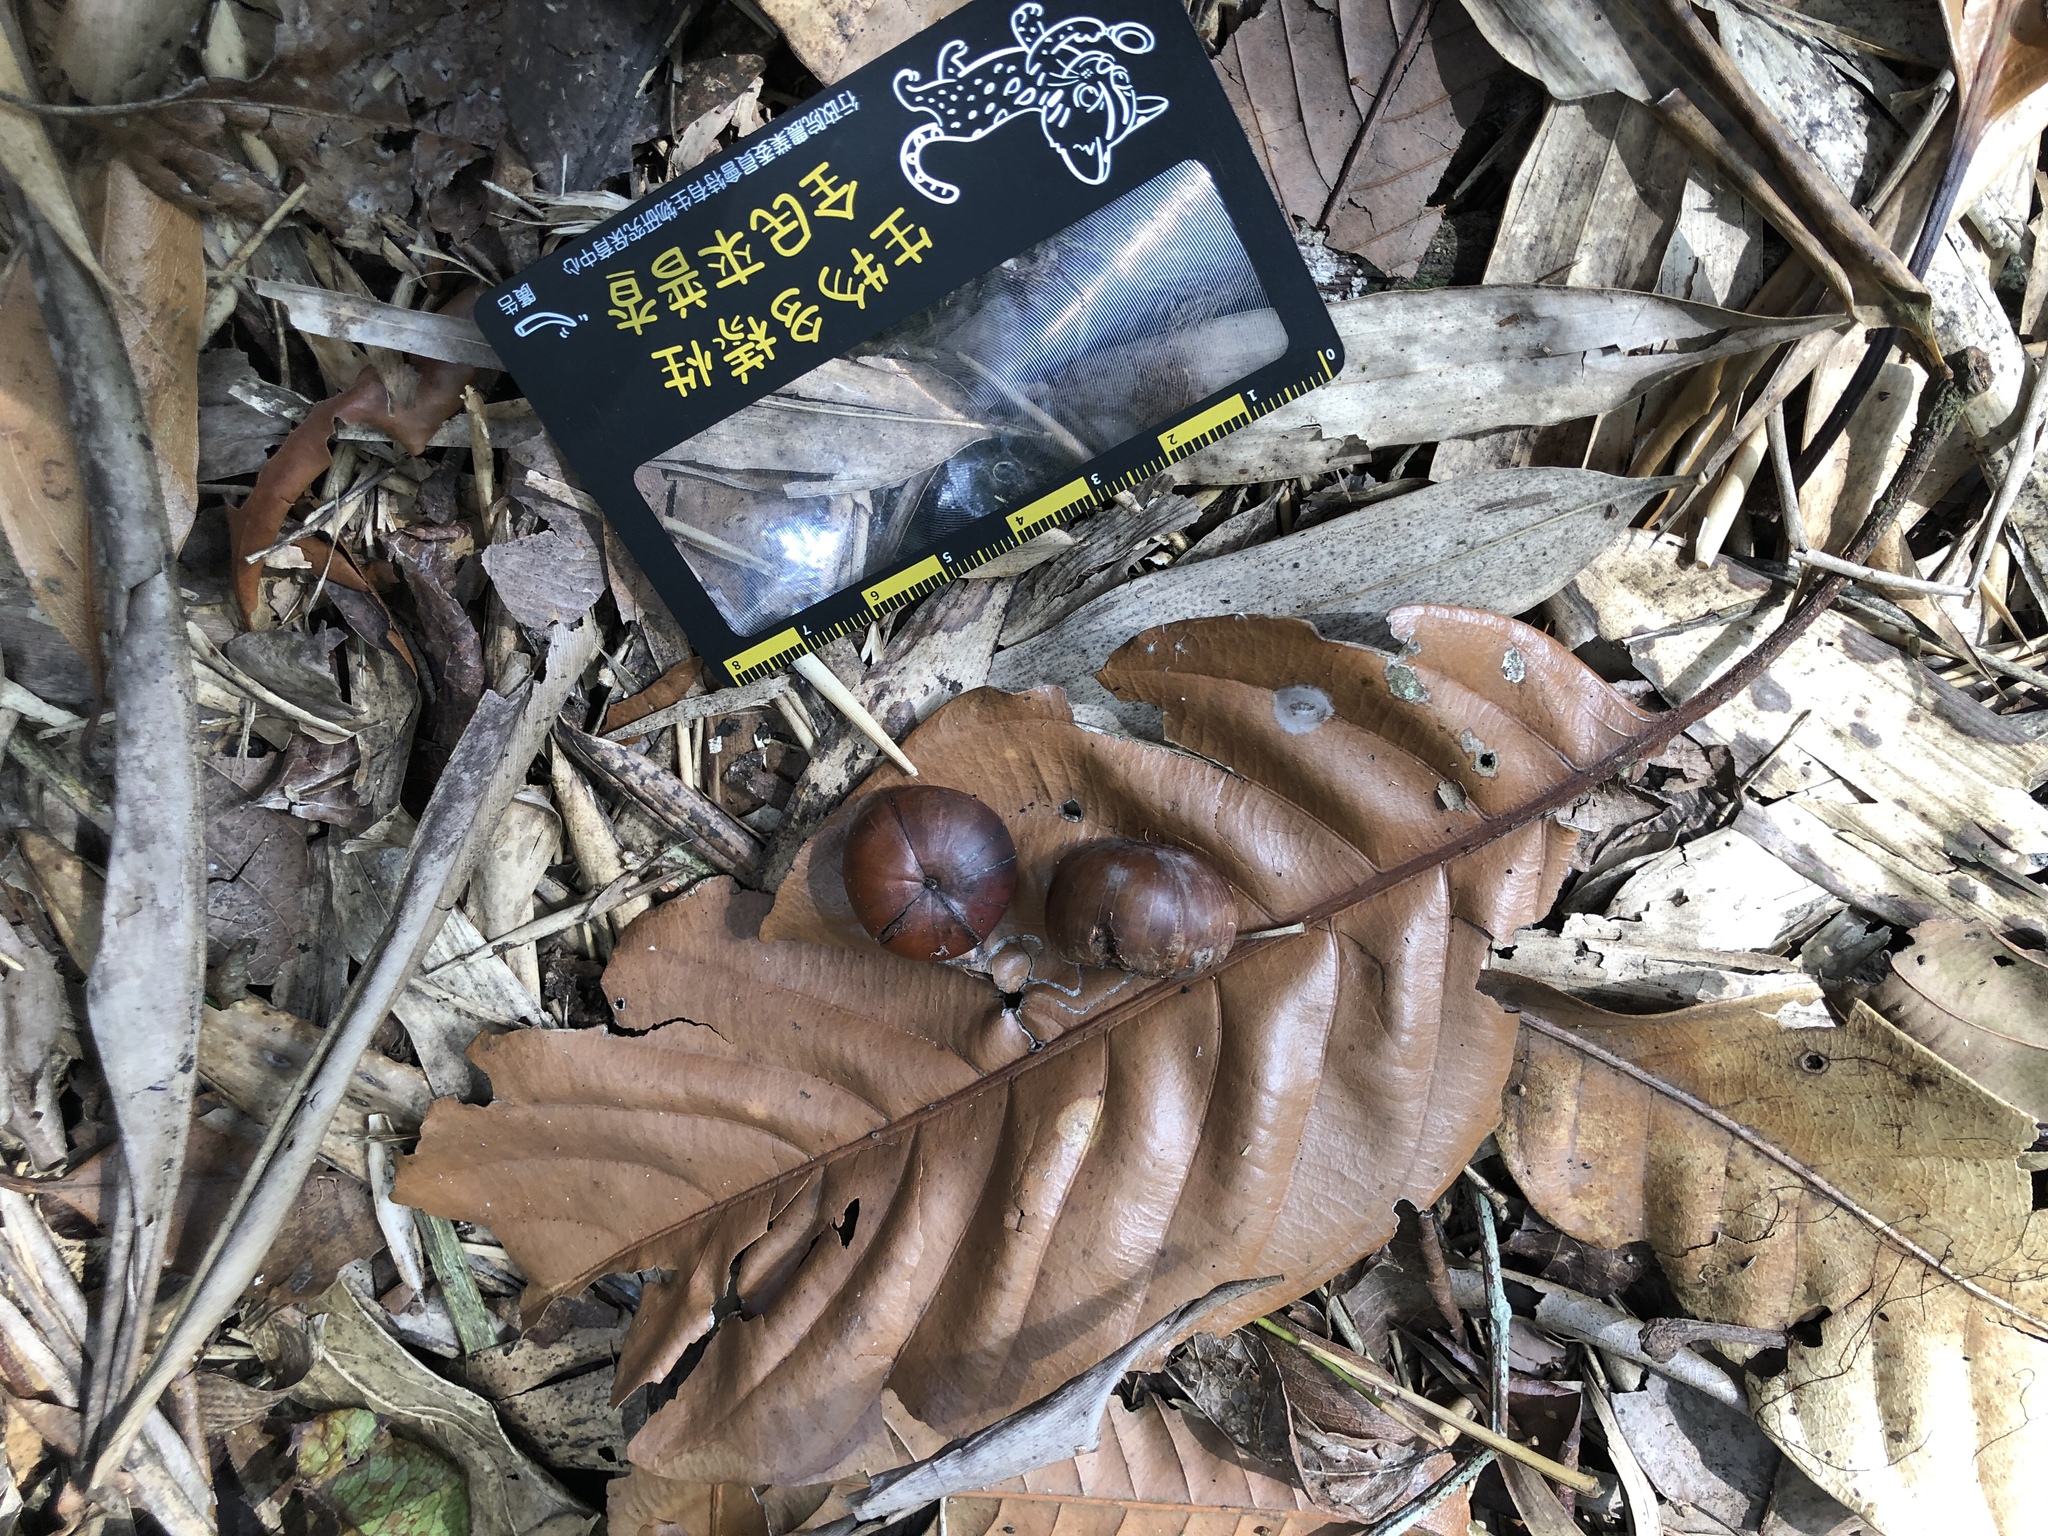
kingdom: Plantae
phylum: Tracheophyta
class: Magnoliopsida
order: Fagales
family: Fagaceae
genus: Lithocarpus
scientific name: Lithocarpus kawakamii
